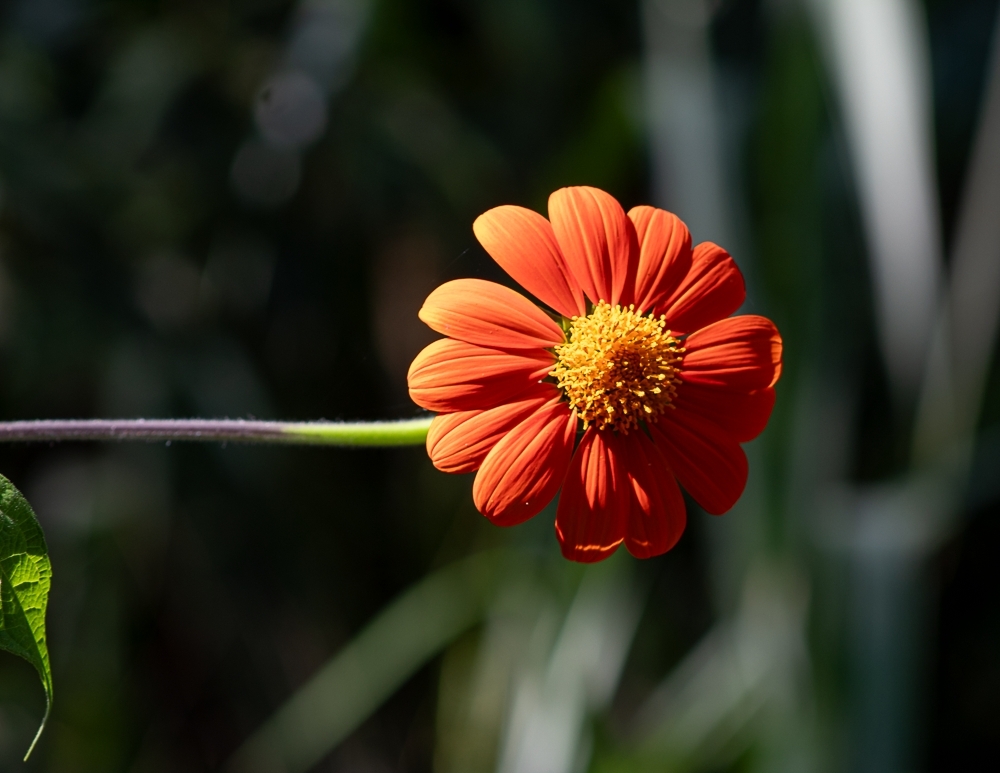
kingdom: Plantae
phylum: Tracheophyta
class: Magnoliopsida
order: Asterales
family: Asteraceae
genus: Tithonia
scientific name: Tithonia rotundifolia
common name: Sunflower
